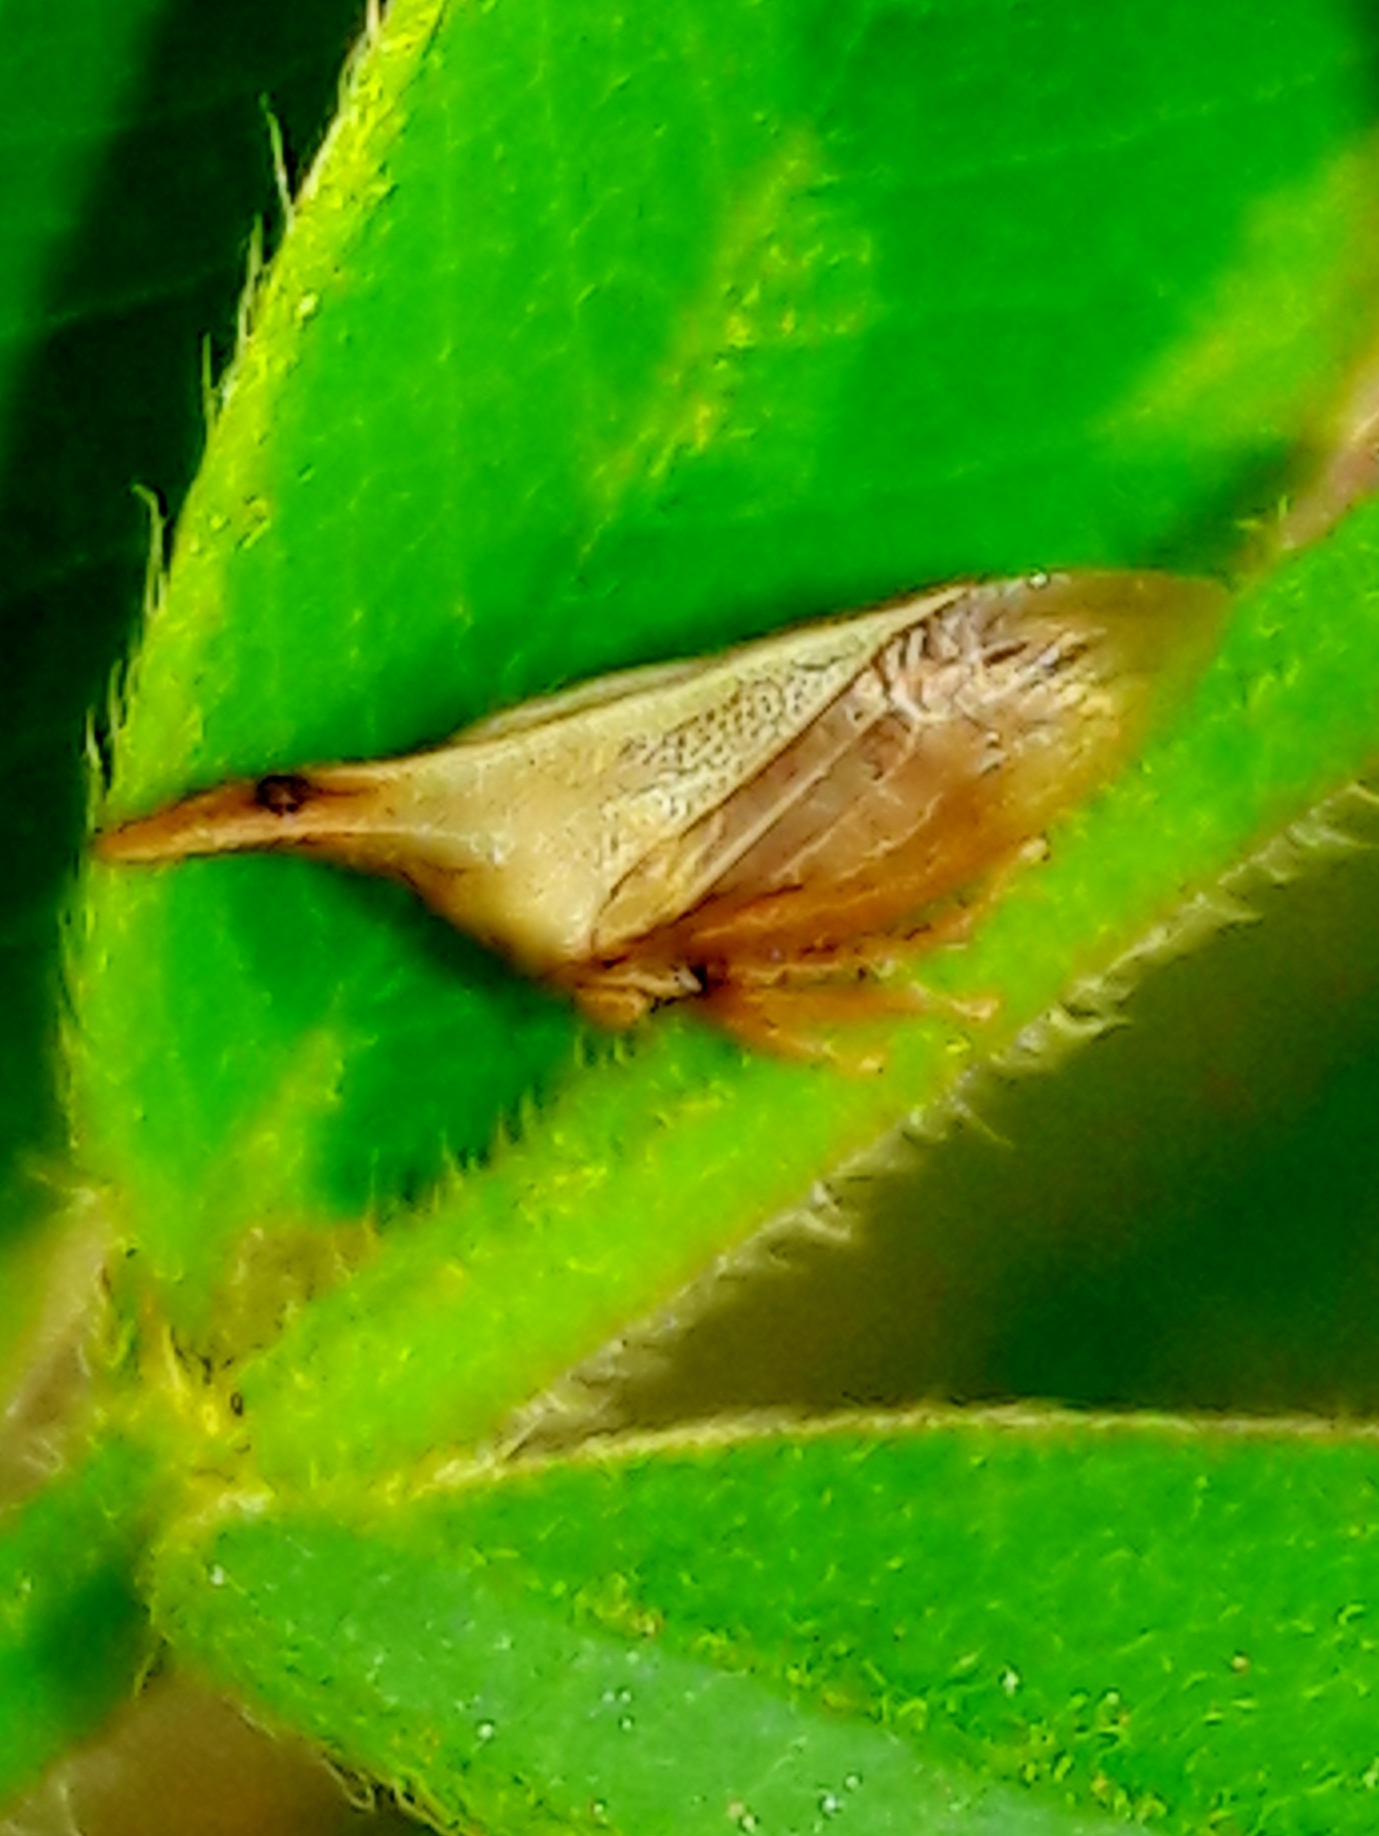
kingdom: Animalia
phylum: Arthropoda
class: Insecta
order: Hemiptera
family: Membracidae
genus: Enchenopa
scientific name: Enchenopa gracilis
